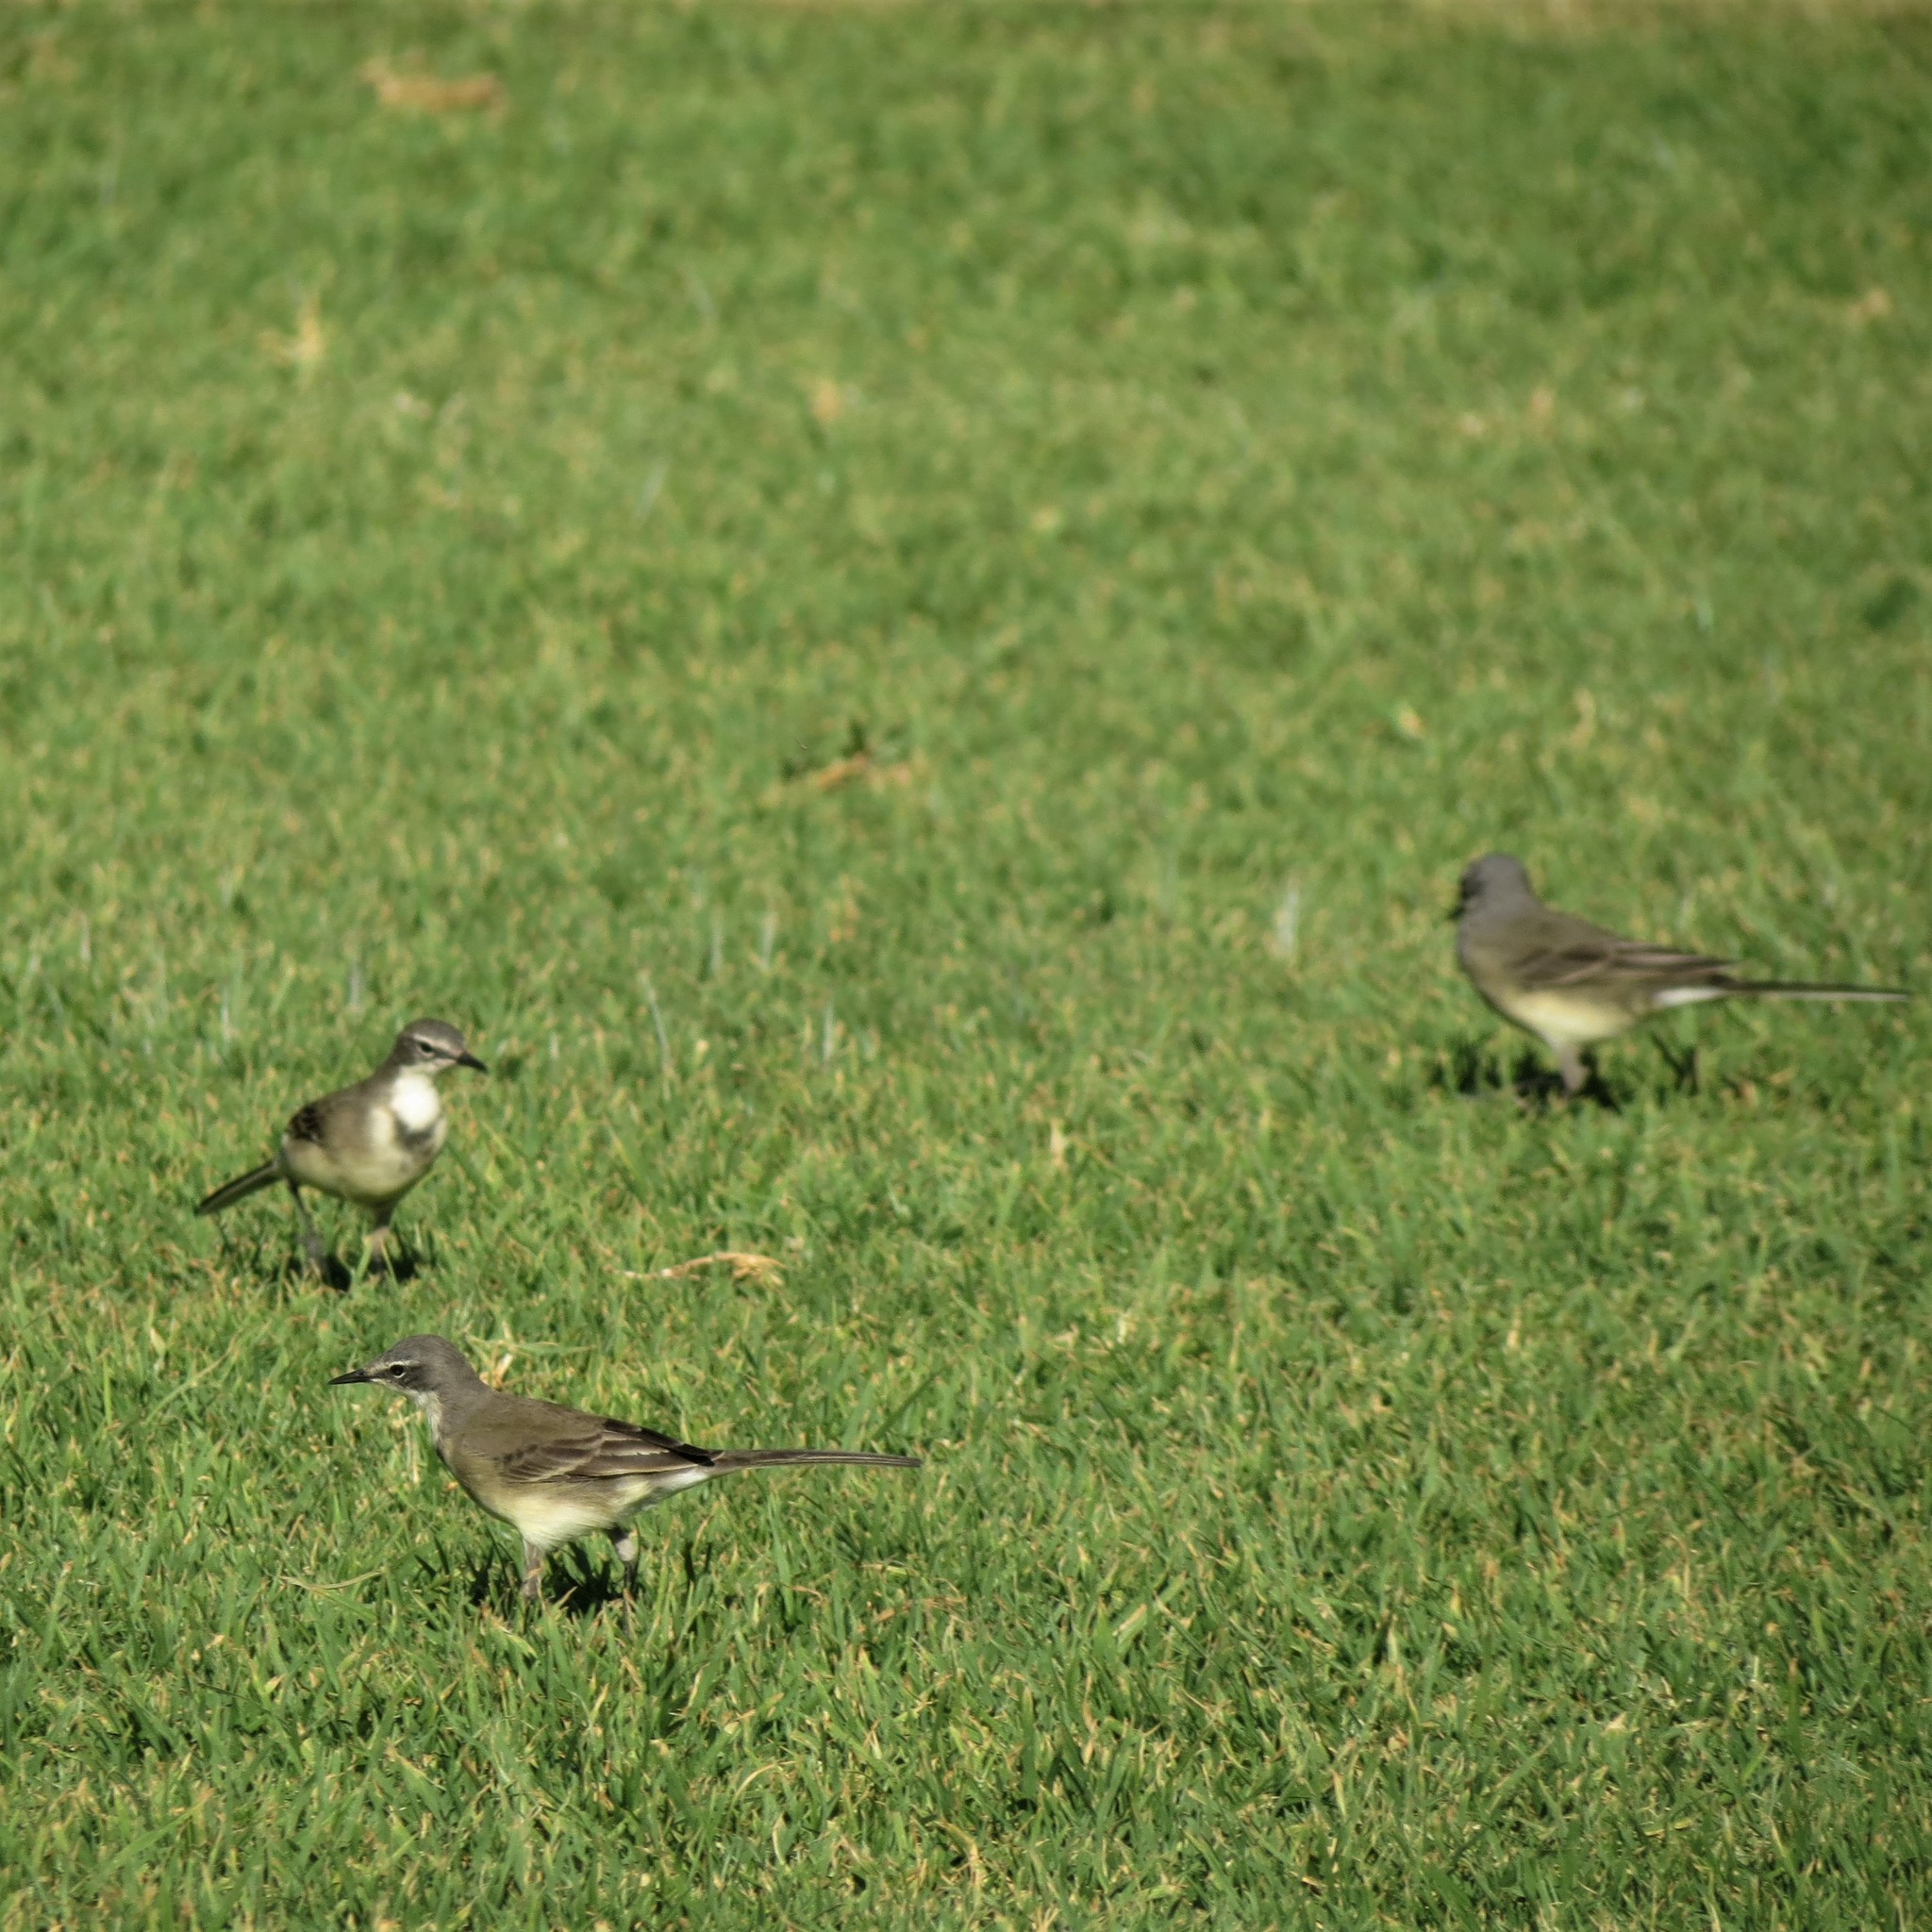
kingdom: Animalia
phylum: Chordata
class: Aves
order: Passeriformes
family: Motacillidae
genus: Motacilla
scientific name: Motacilla capensis
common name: Cape wagtail
